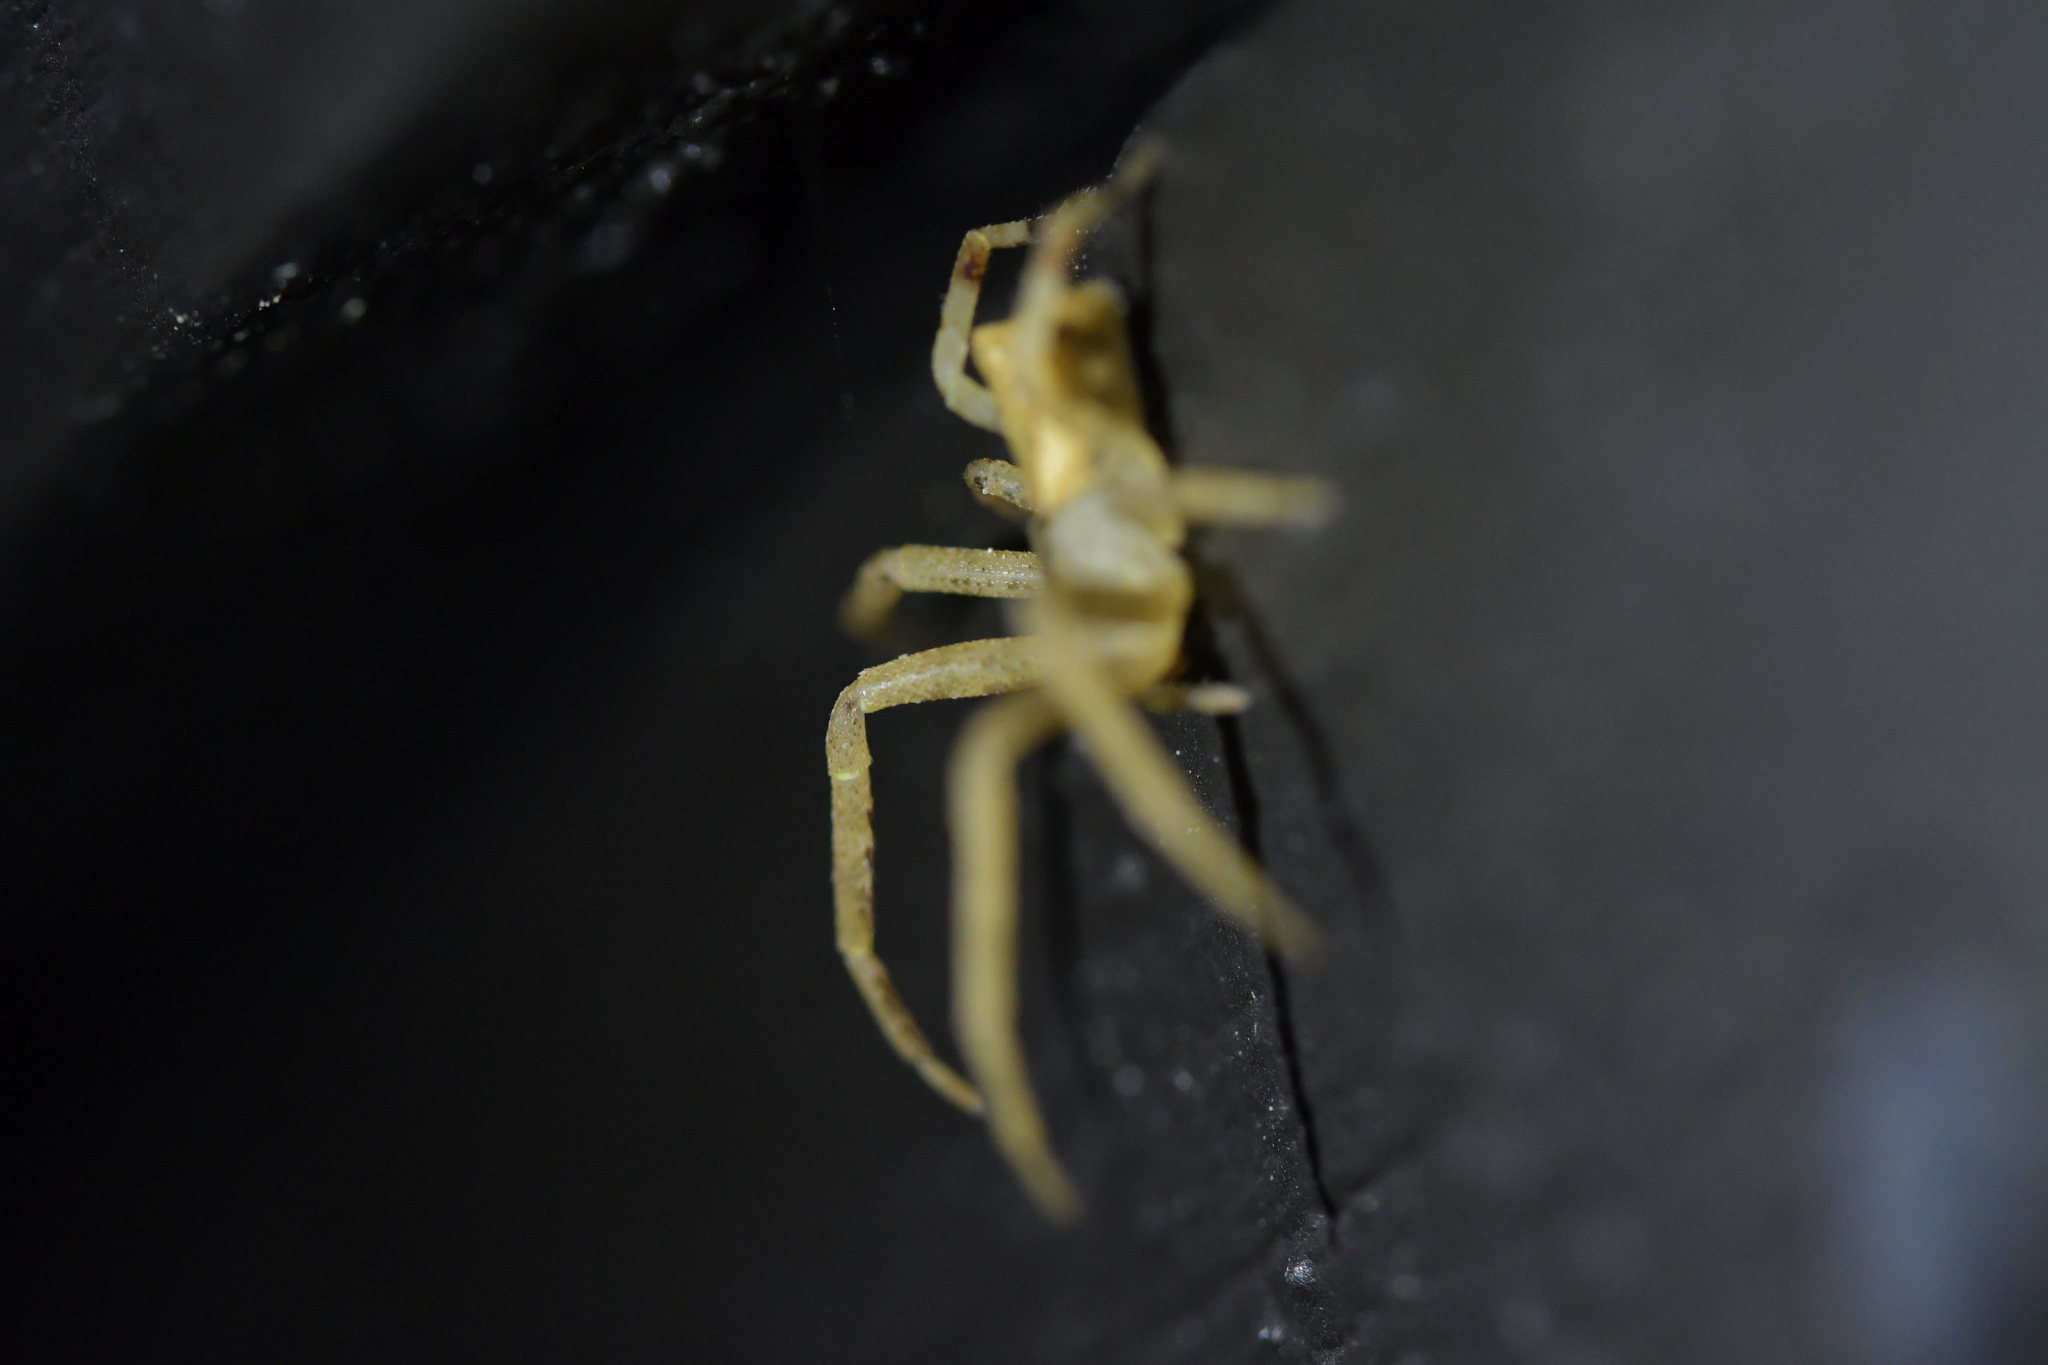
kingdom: Animalia
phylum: Arthropoda
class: Arachnida
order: Araneae
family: Thomisidae
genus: Sidymella
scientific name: Sidymella trapezia
